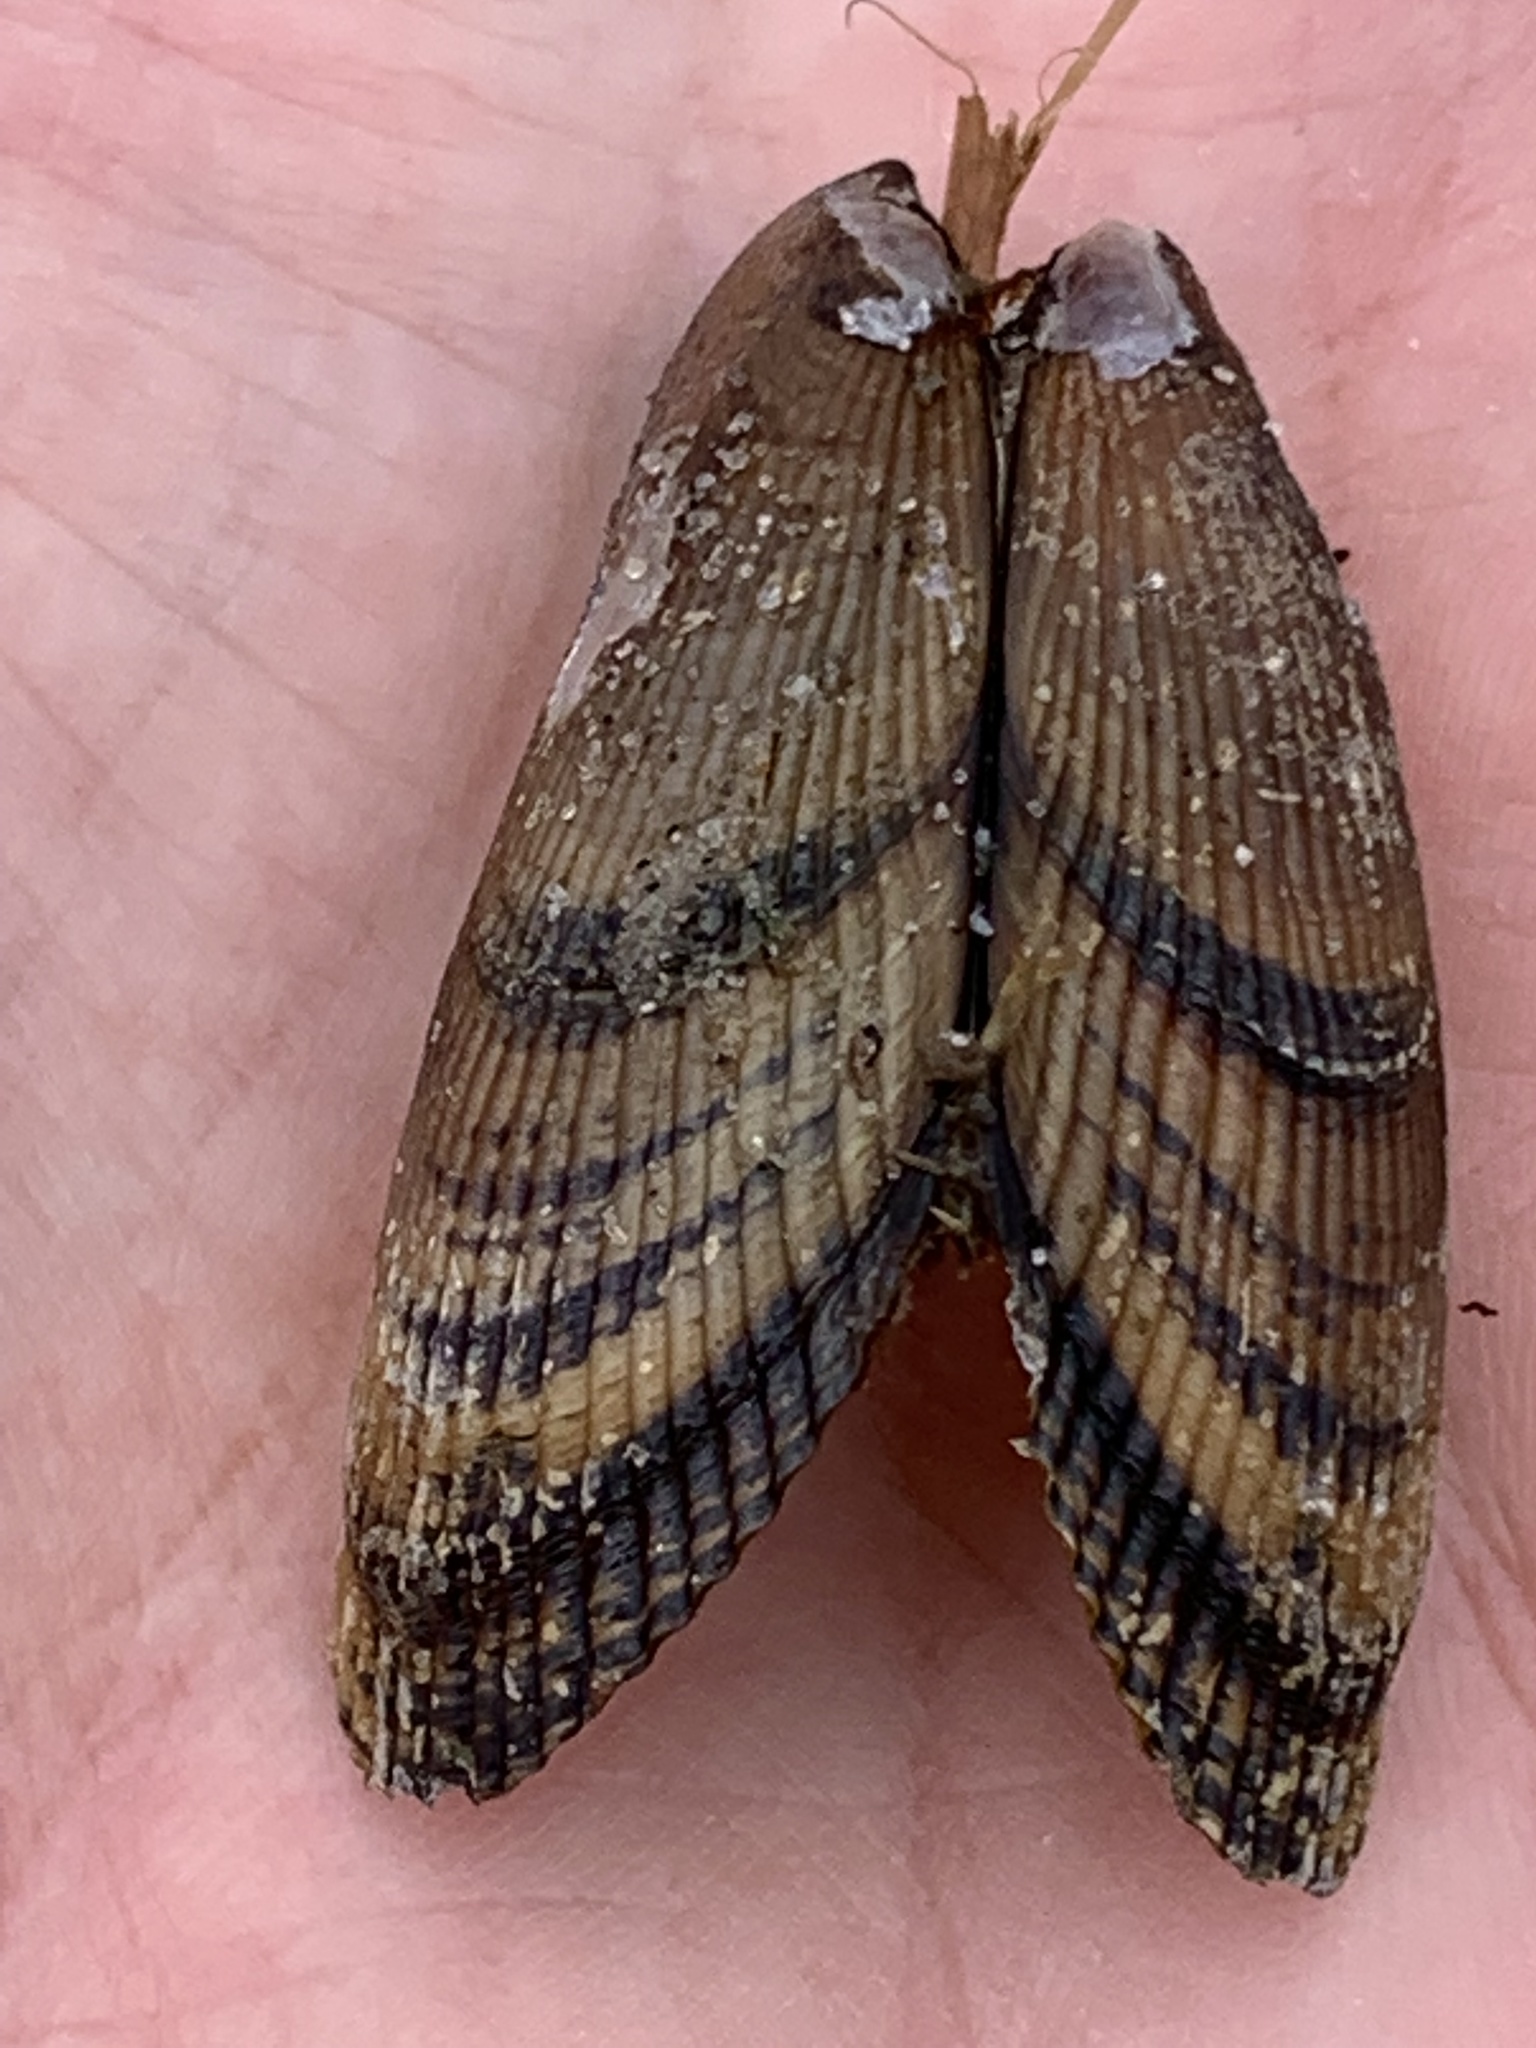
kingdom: Animalia
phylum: Mollusca
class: Bivalvia
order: Mytilida
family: Mytilidae
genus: Geukensia
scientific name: Geukensia demissa
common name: Ribbed mussel
